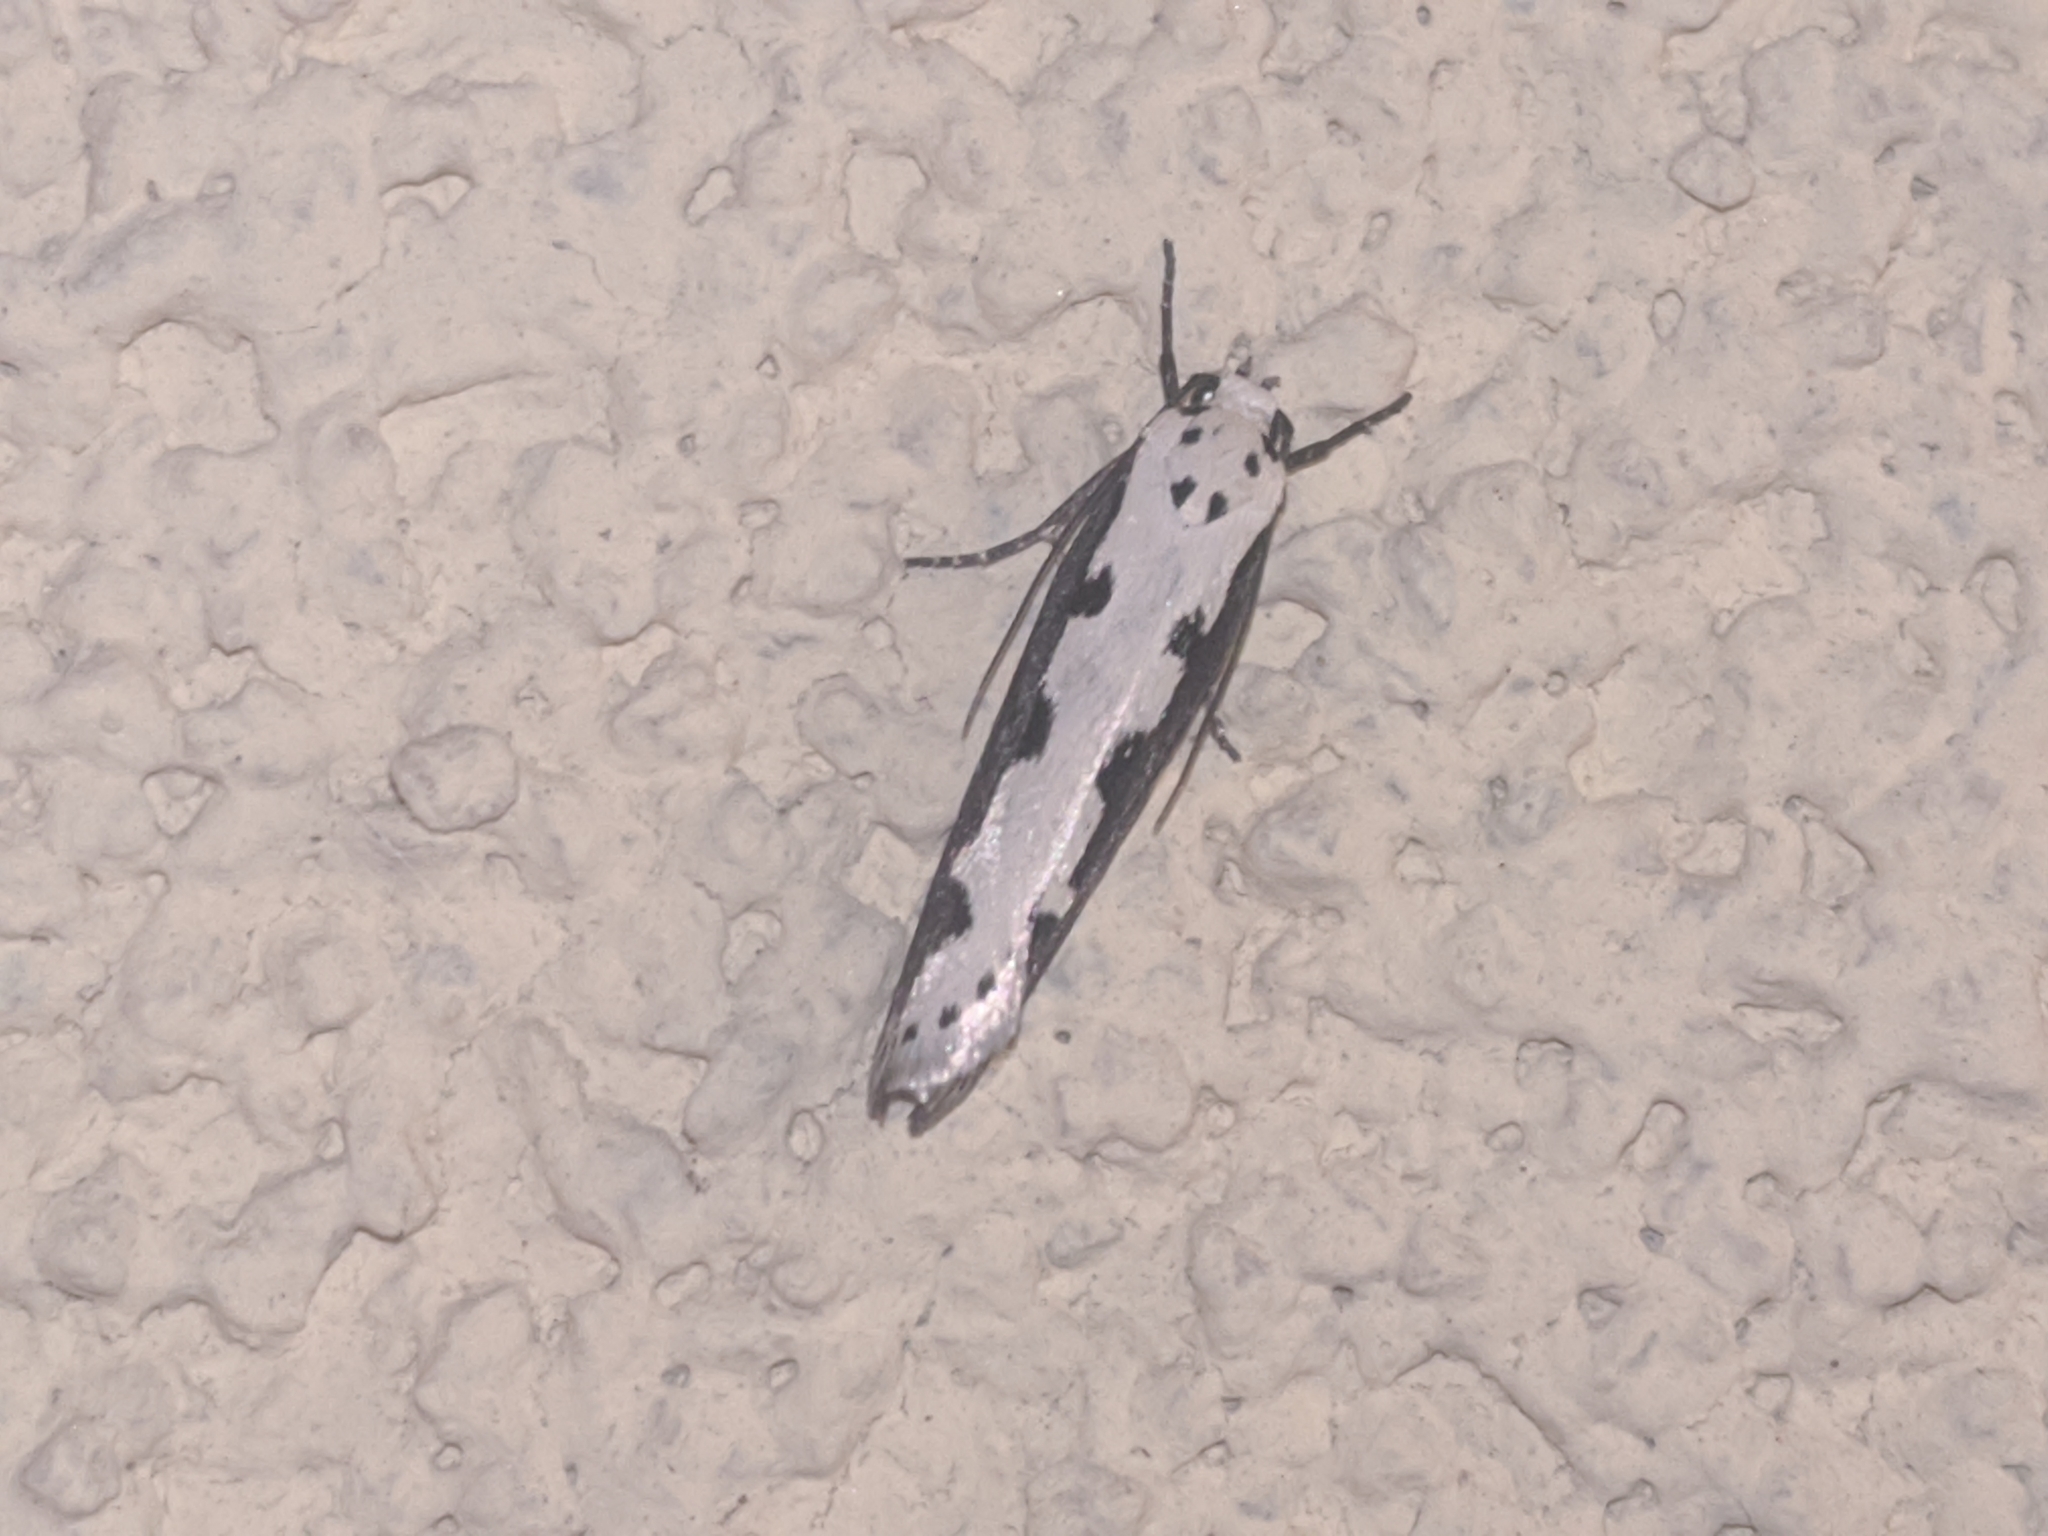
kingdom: Animalia
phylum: Arthropoda
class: Insecta
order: Lepidoptera
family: Ethmiidae
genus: Ethmia
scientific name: Ethmia bipunctella
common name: Bordered ermel
